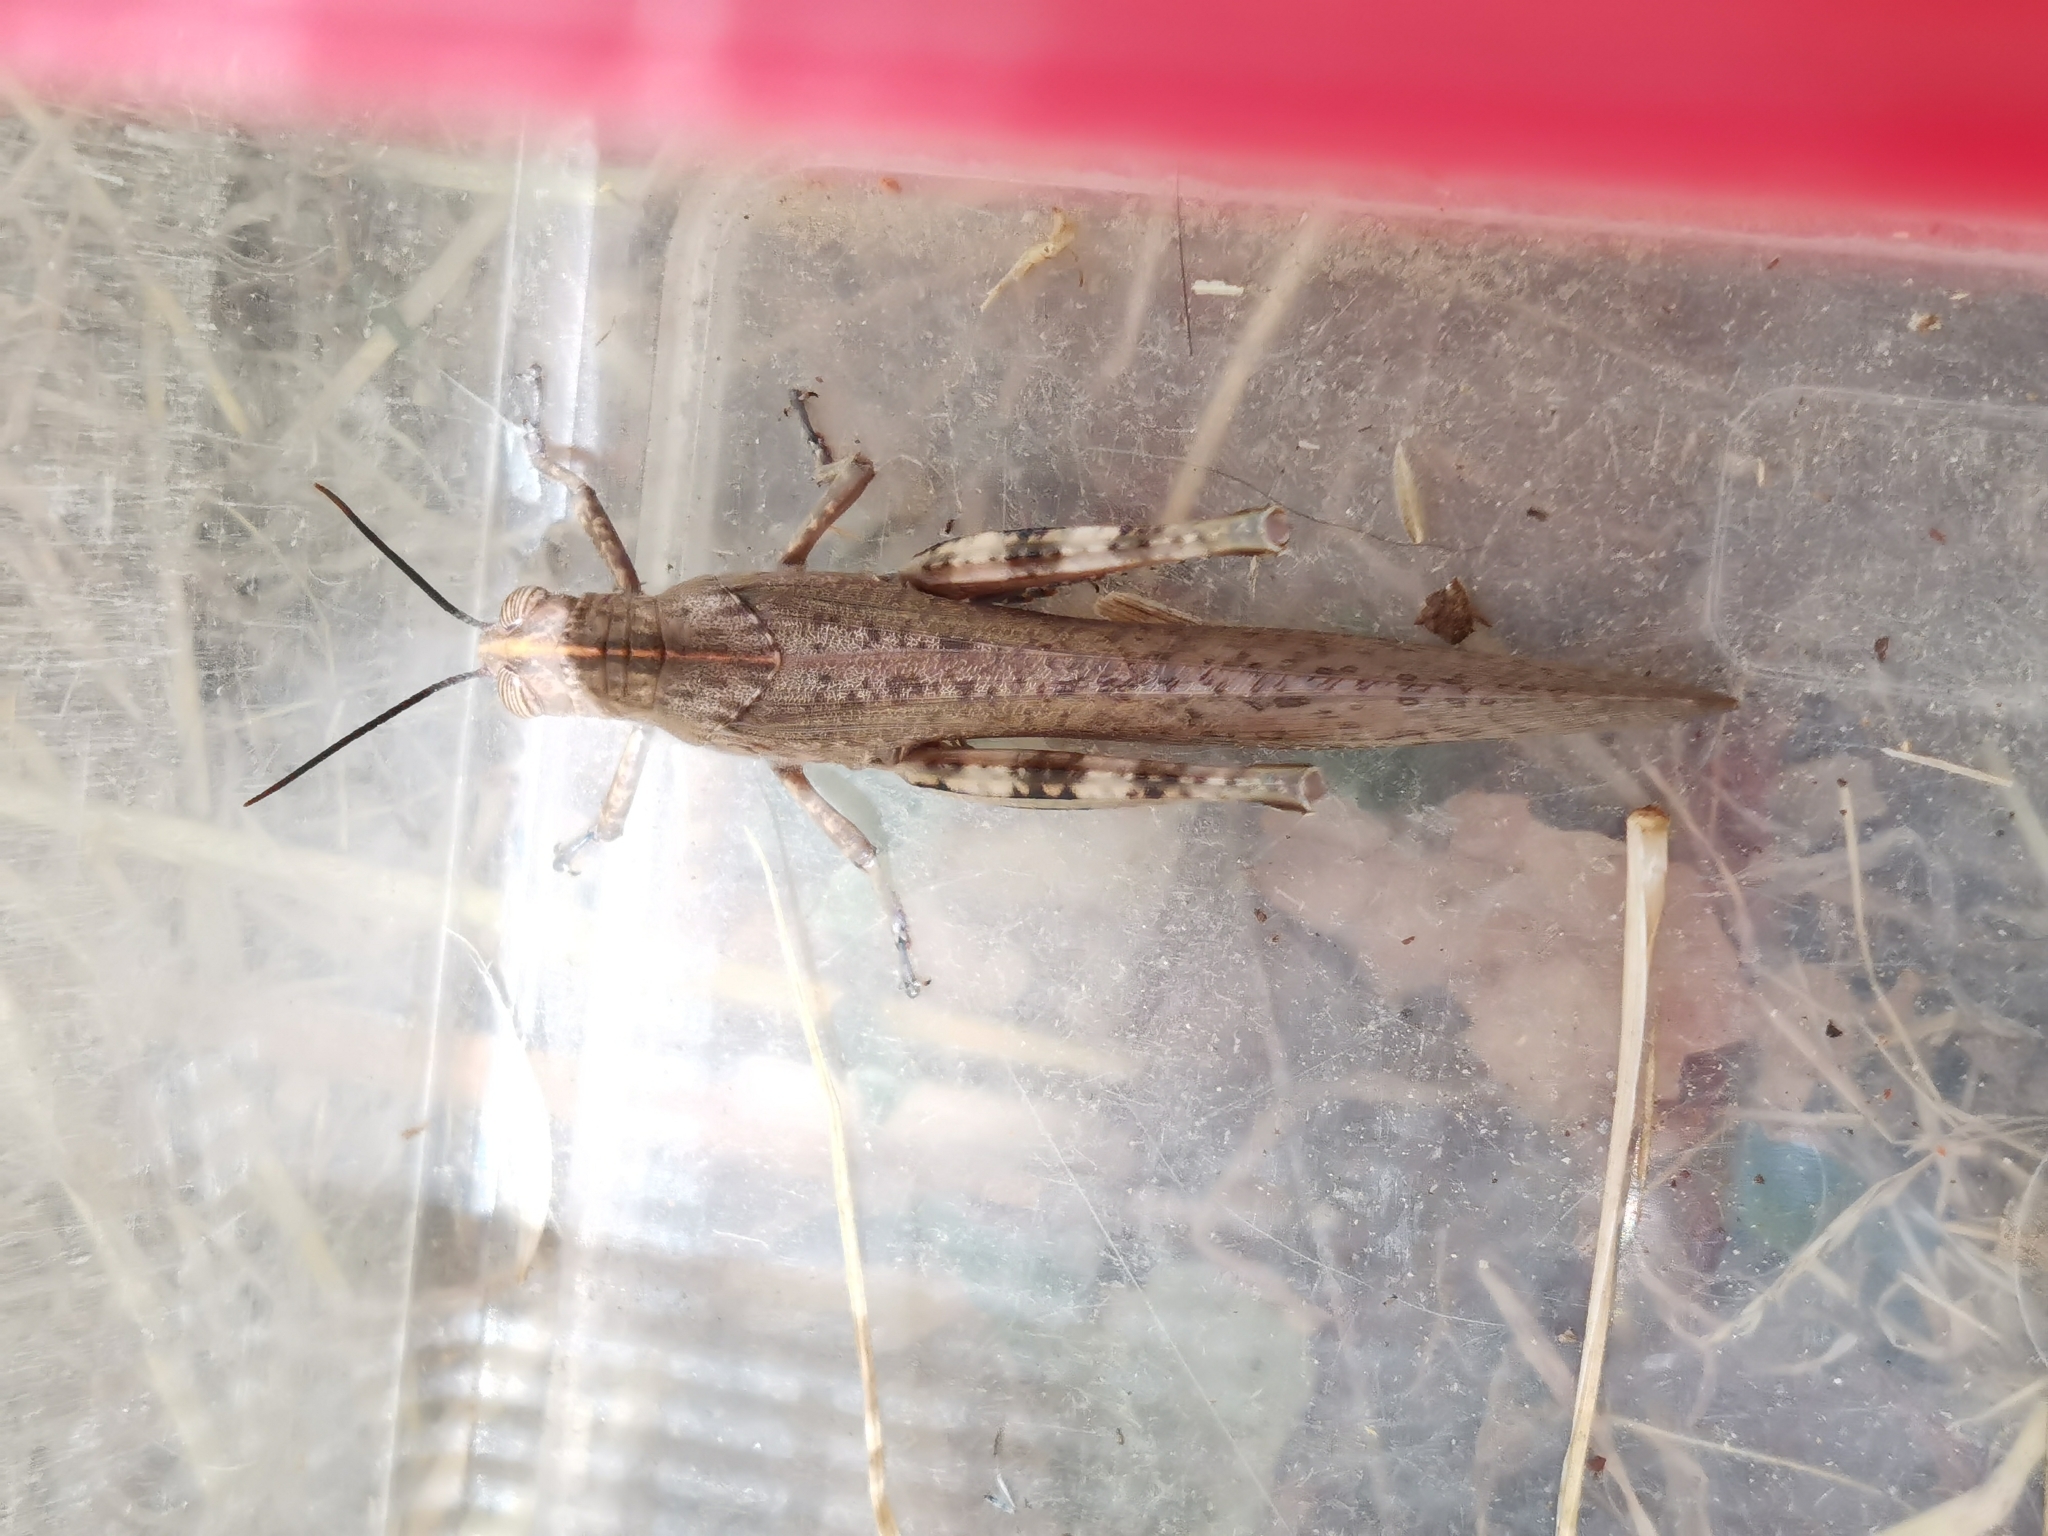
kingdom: Animalia
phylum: Arthropoda
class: Insecta
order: Orthoptera
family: Acrididae
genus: Anacridium
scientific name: Anacridium aegyptium
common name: Egyptian grasshopper
